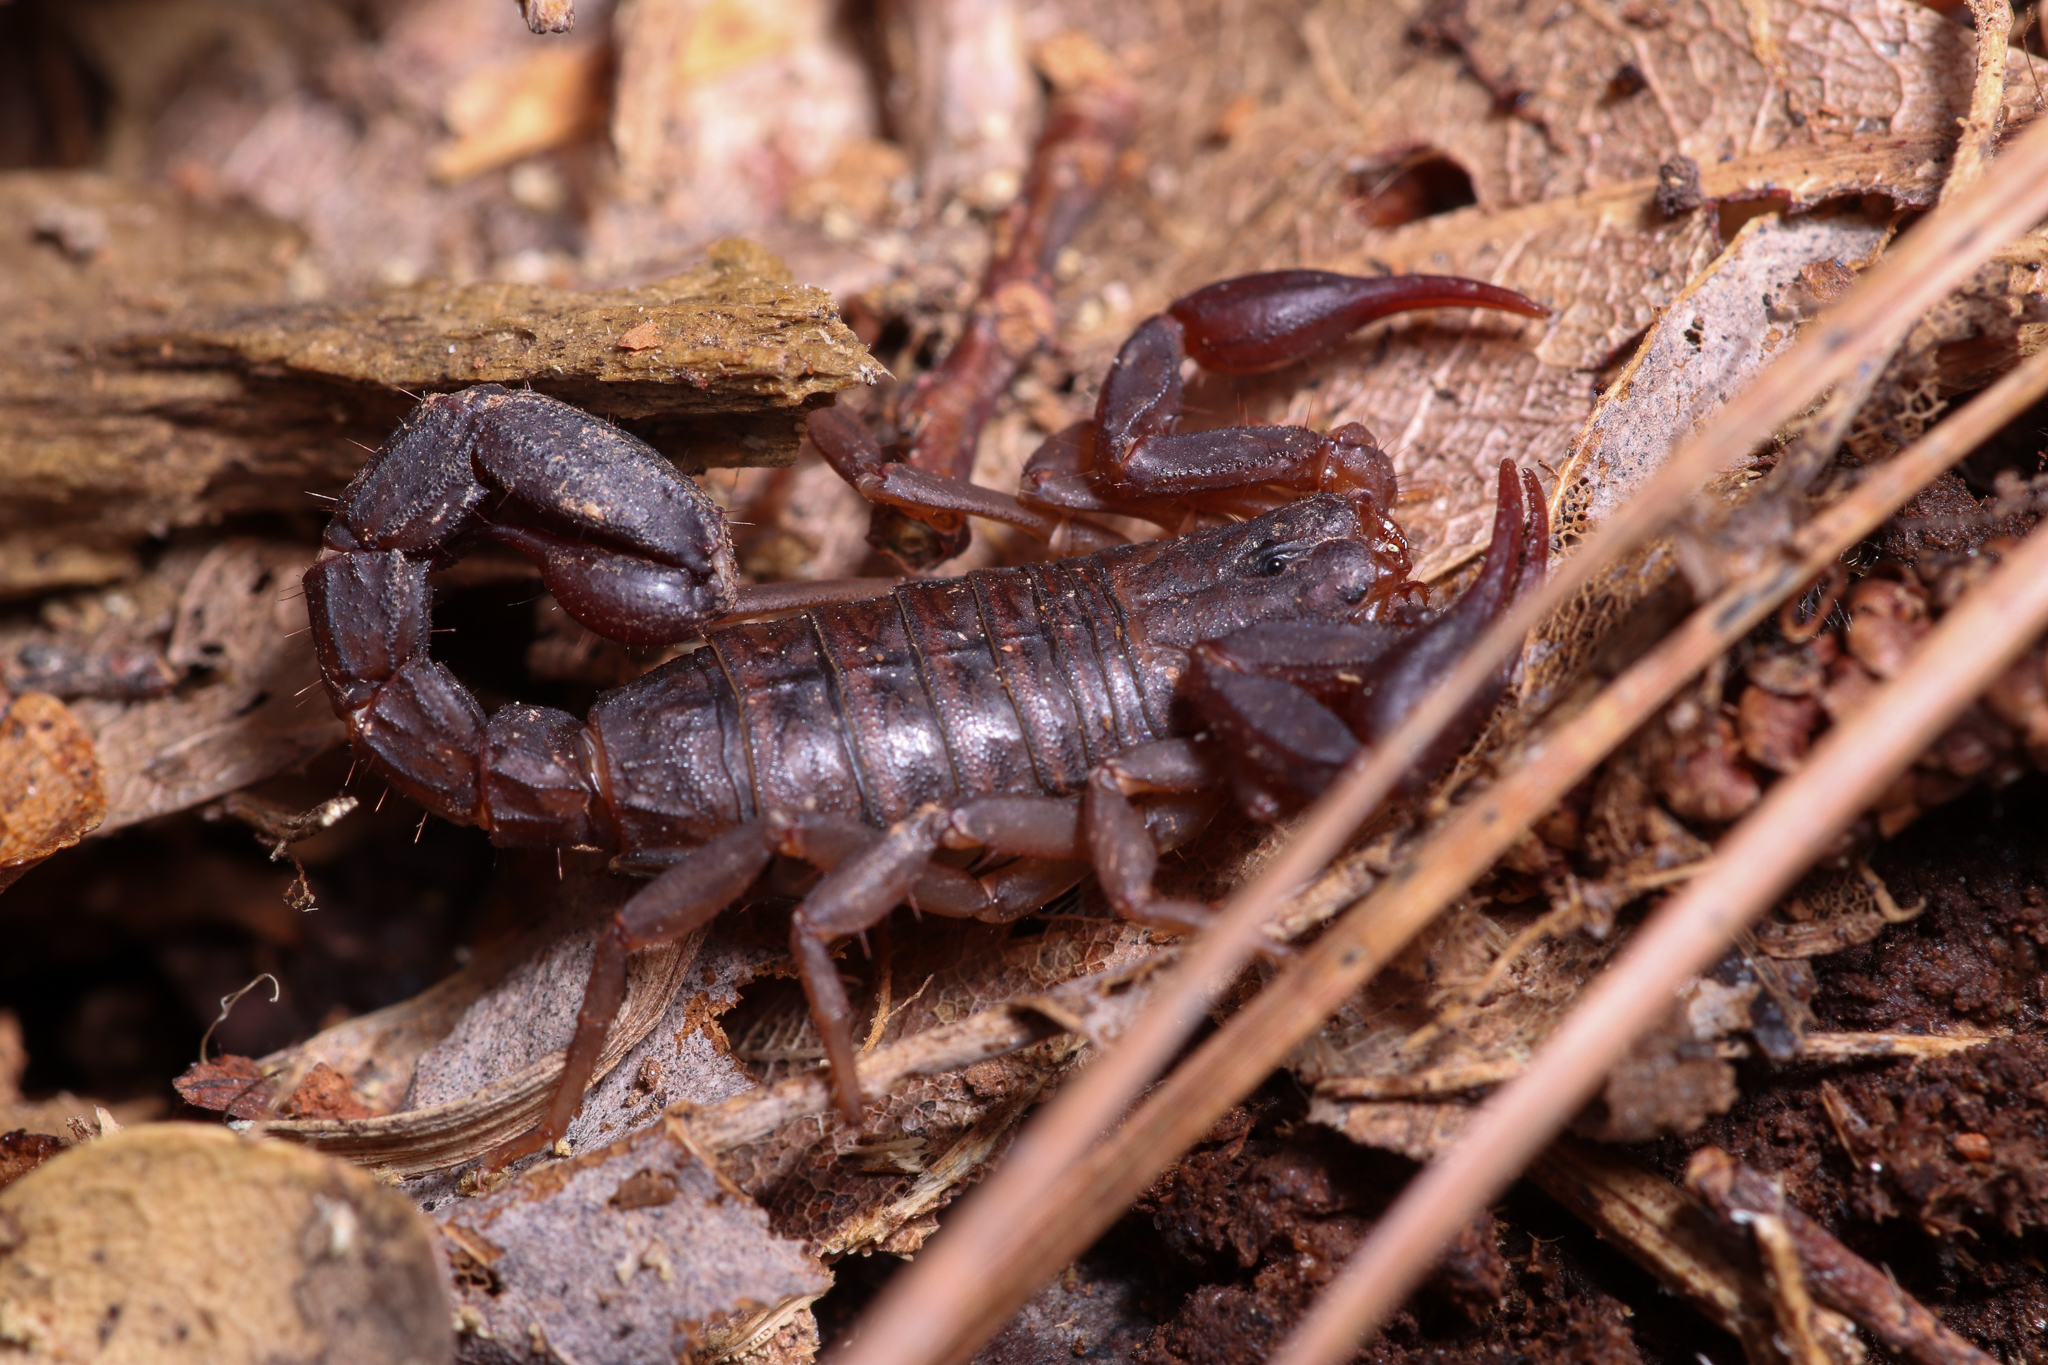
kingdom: Animalia
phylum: Arthropoda
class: Arachnida
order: Scorpiones
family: Vaejovidae
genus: Vaejovis
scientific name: Vaejovis carolinianus
